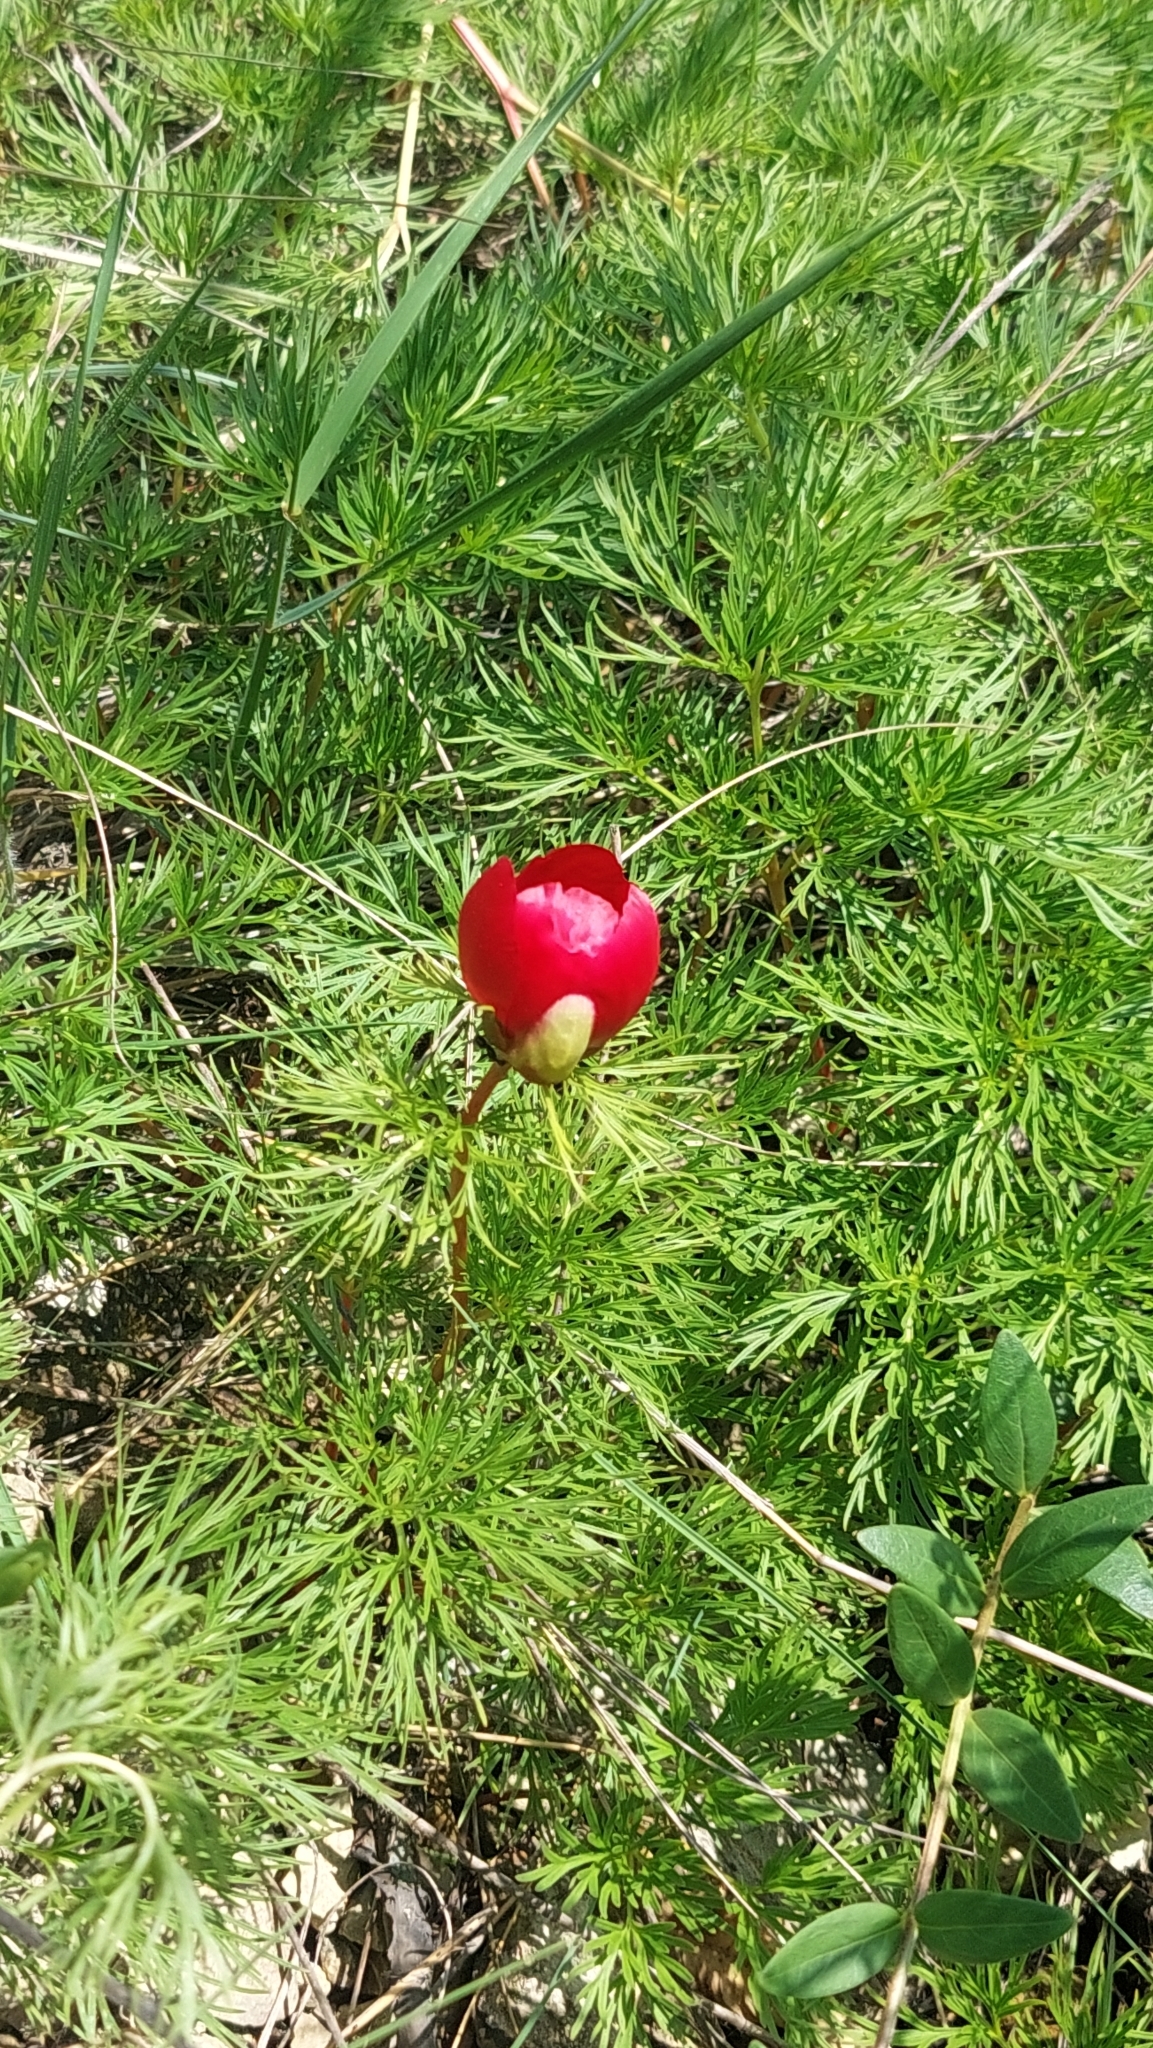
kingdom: Plantae
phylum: Tracheophyta
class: Magnoliopsida
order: Saxifragales
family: Paeoniaceae
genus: Paeonia
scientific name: Paeonia tenuifolia
